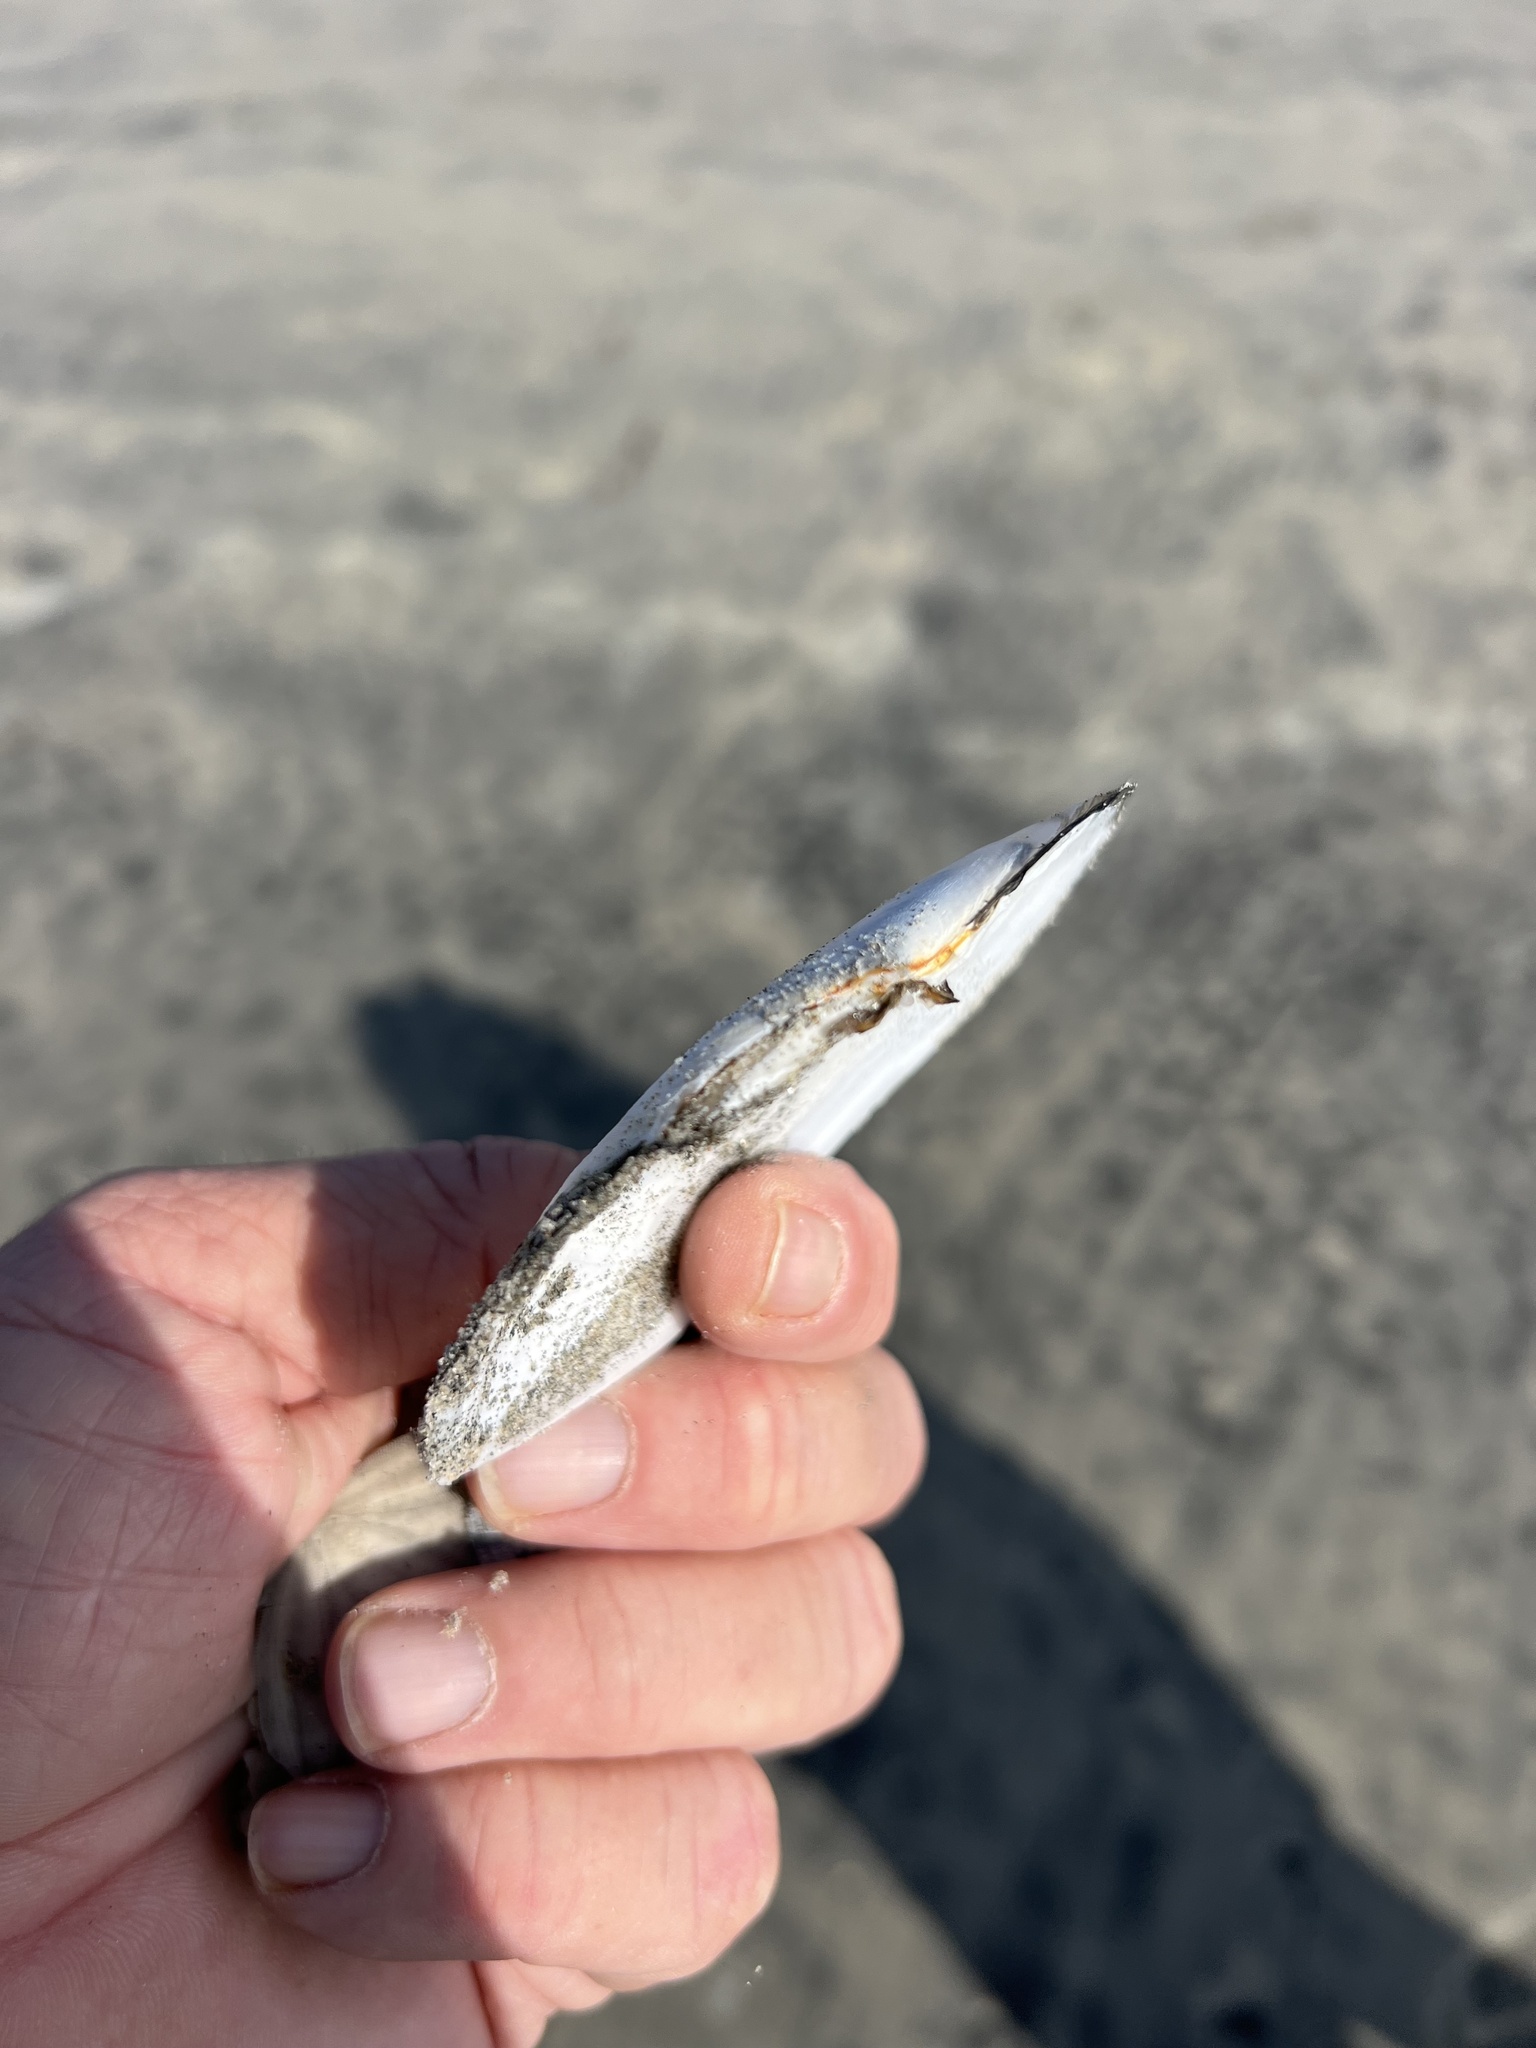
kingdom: Animalia
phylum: Mollusca
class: Bivalvia
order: Cardiida
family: Tellinidae
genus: Rexithaerus
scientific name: Rexithaerus secta
